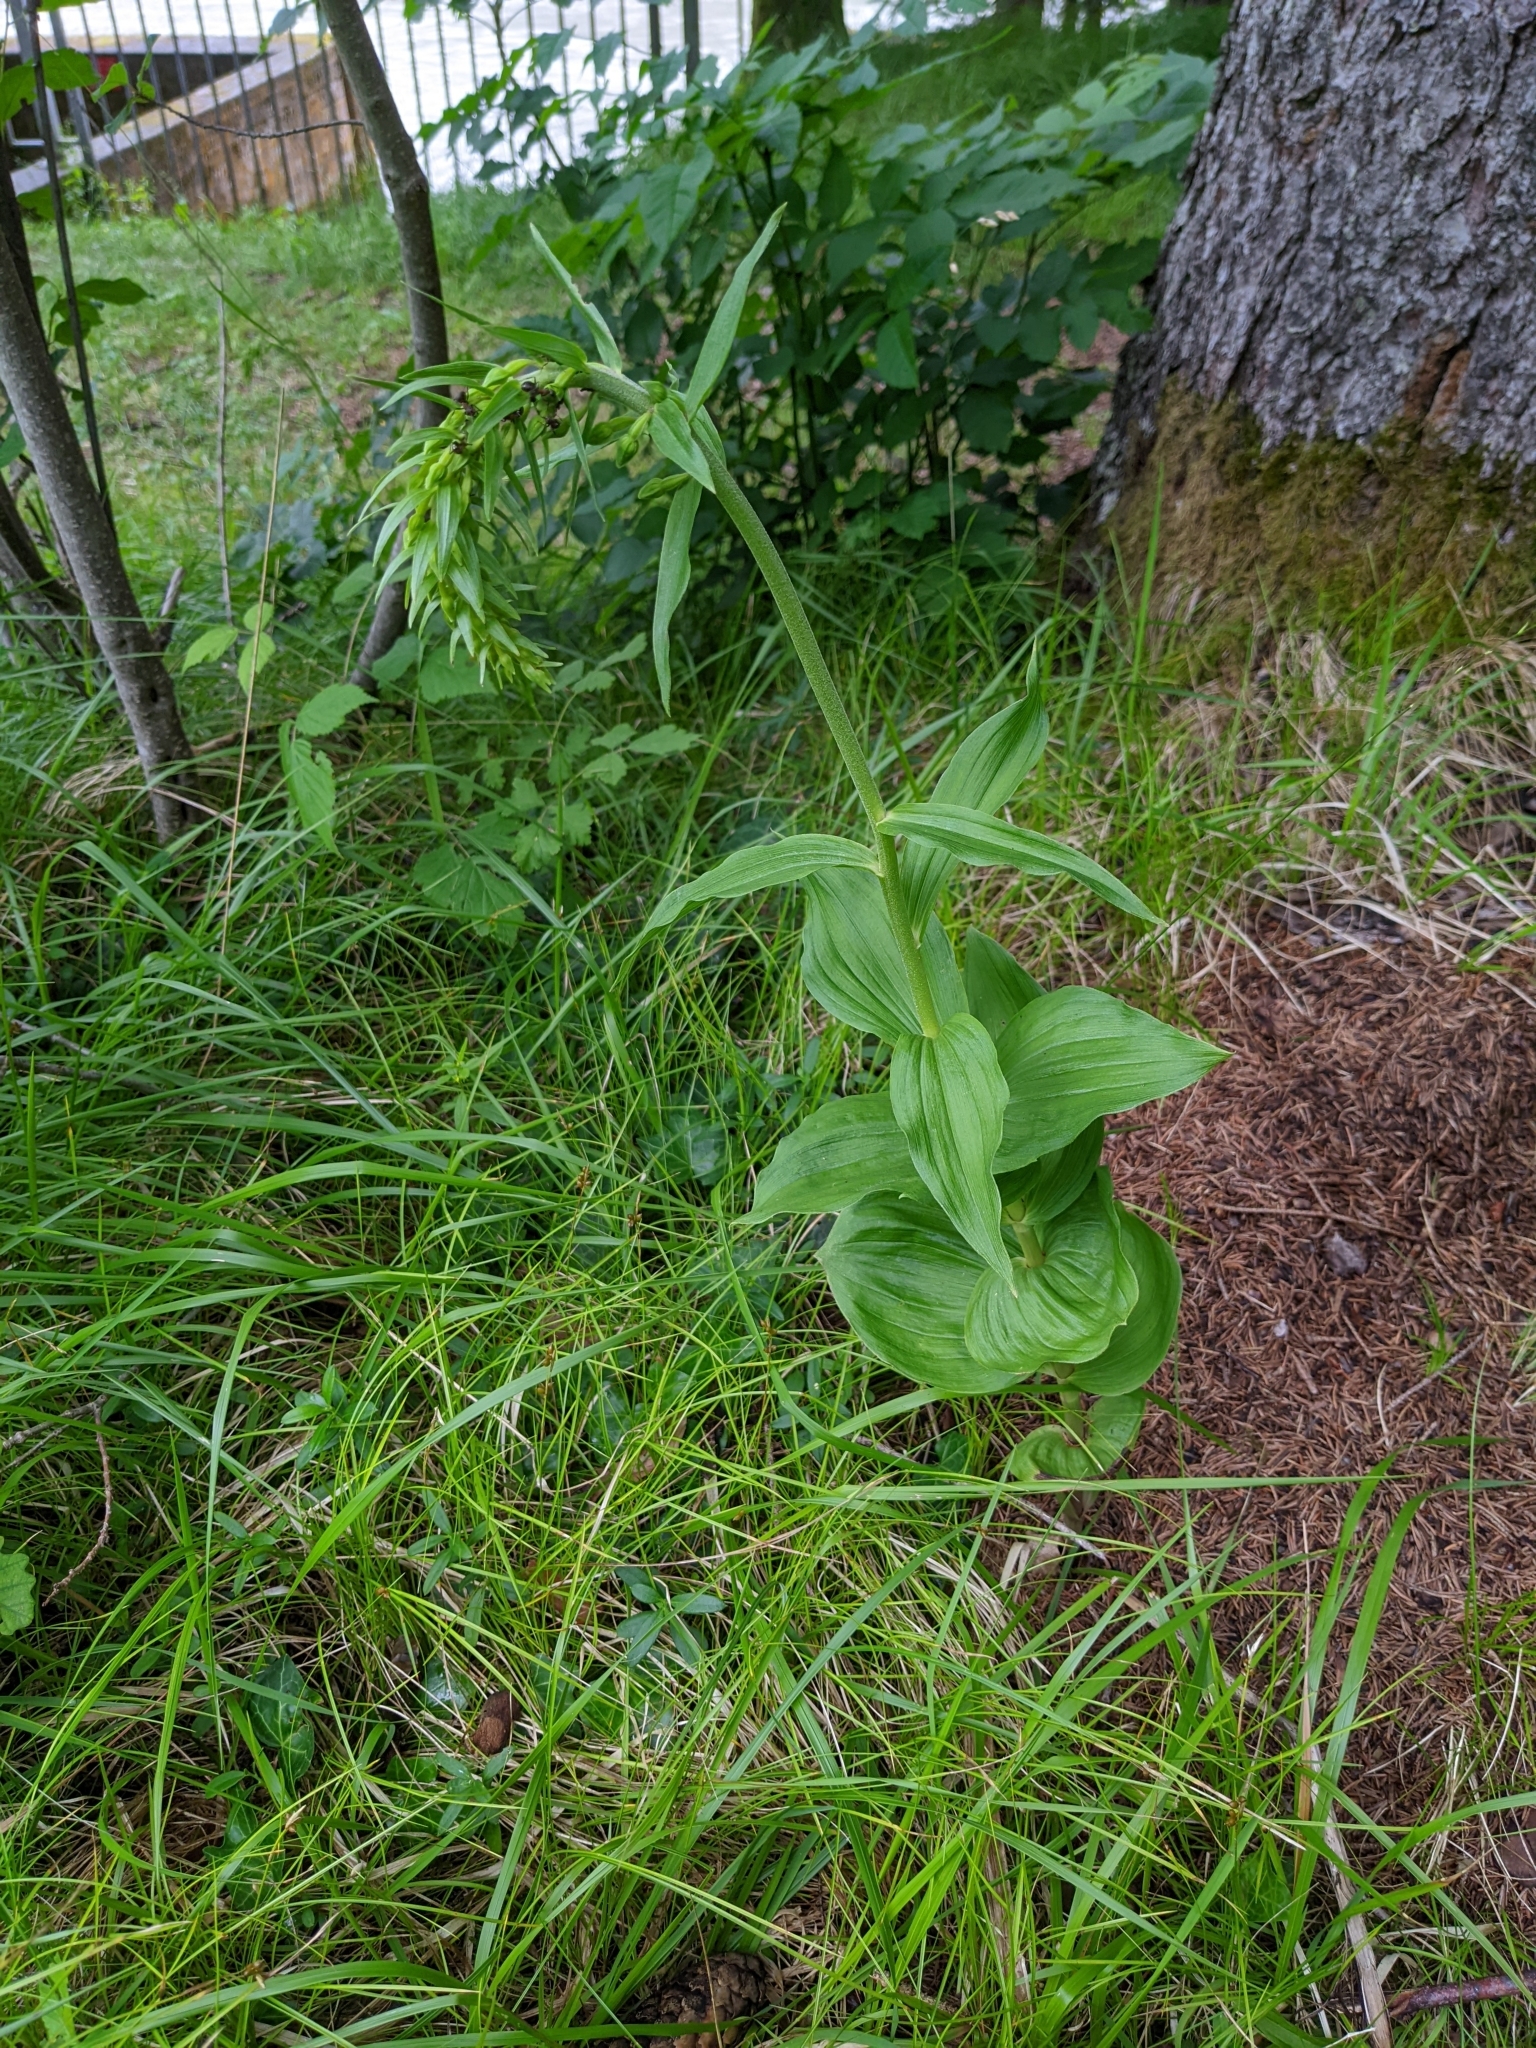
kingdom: Plantae
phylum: Tracheophyta
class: Liliopsida
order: Asparagales
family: Orchidaceae
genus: Epipactis
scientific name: Epipactis helleborine
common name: Broad-leaved helleborine
